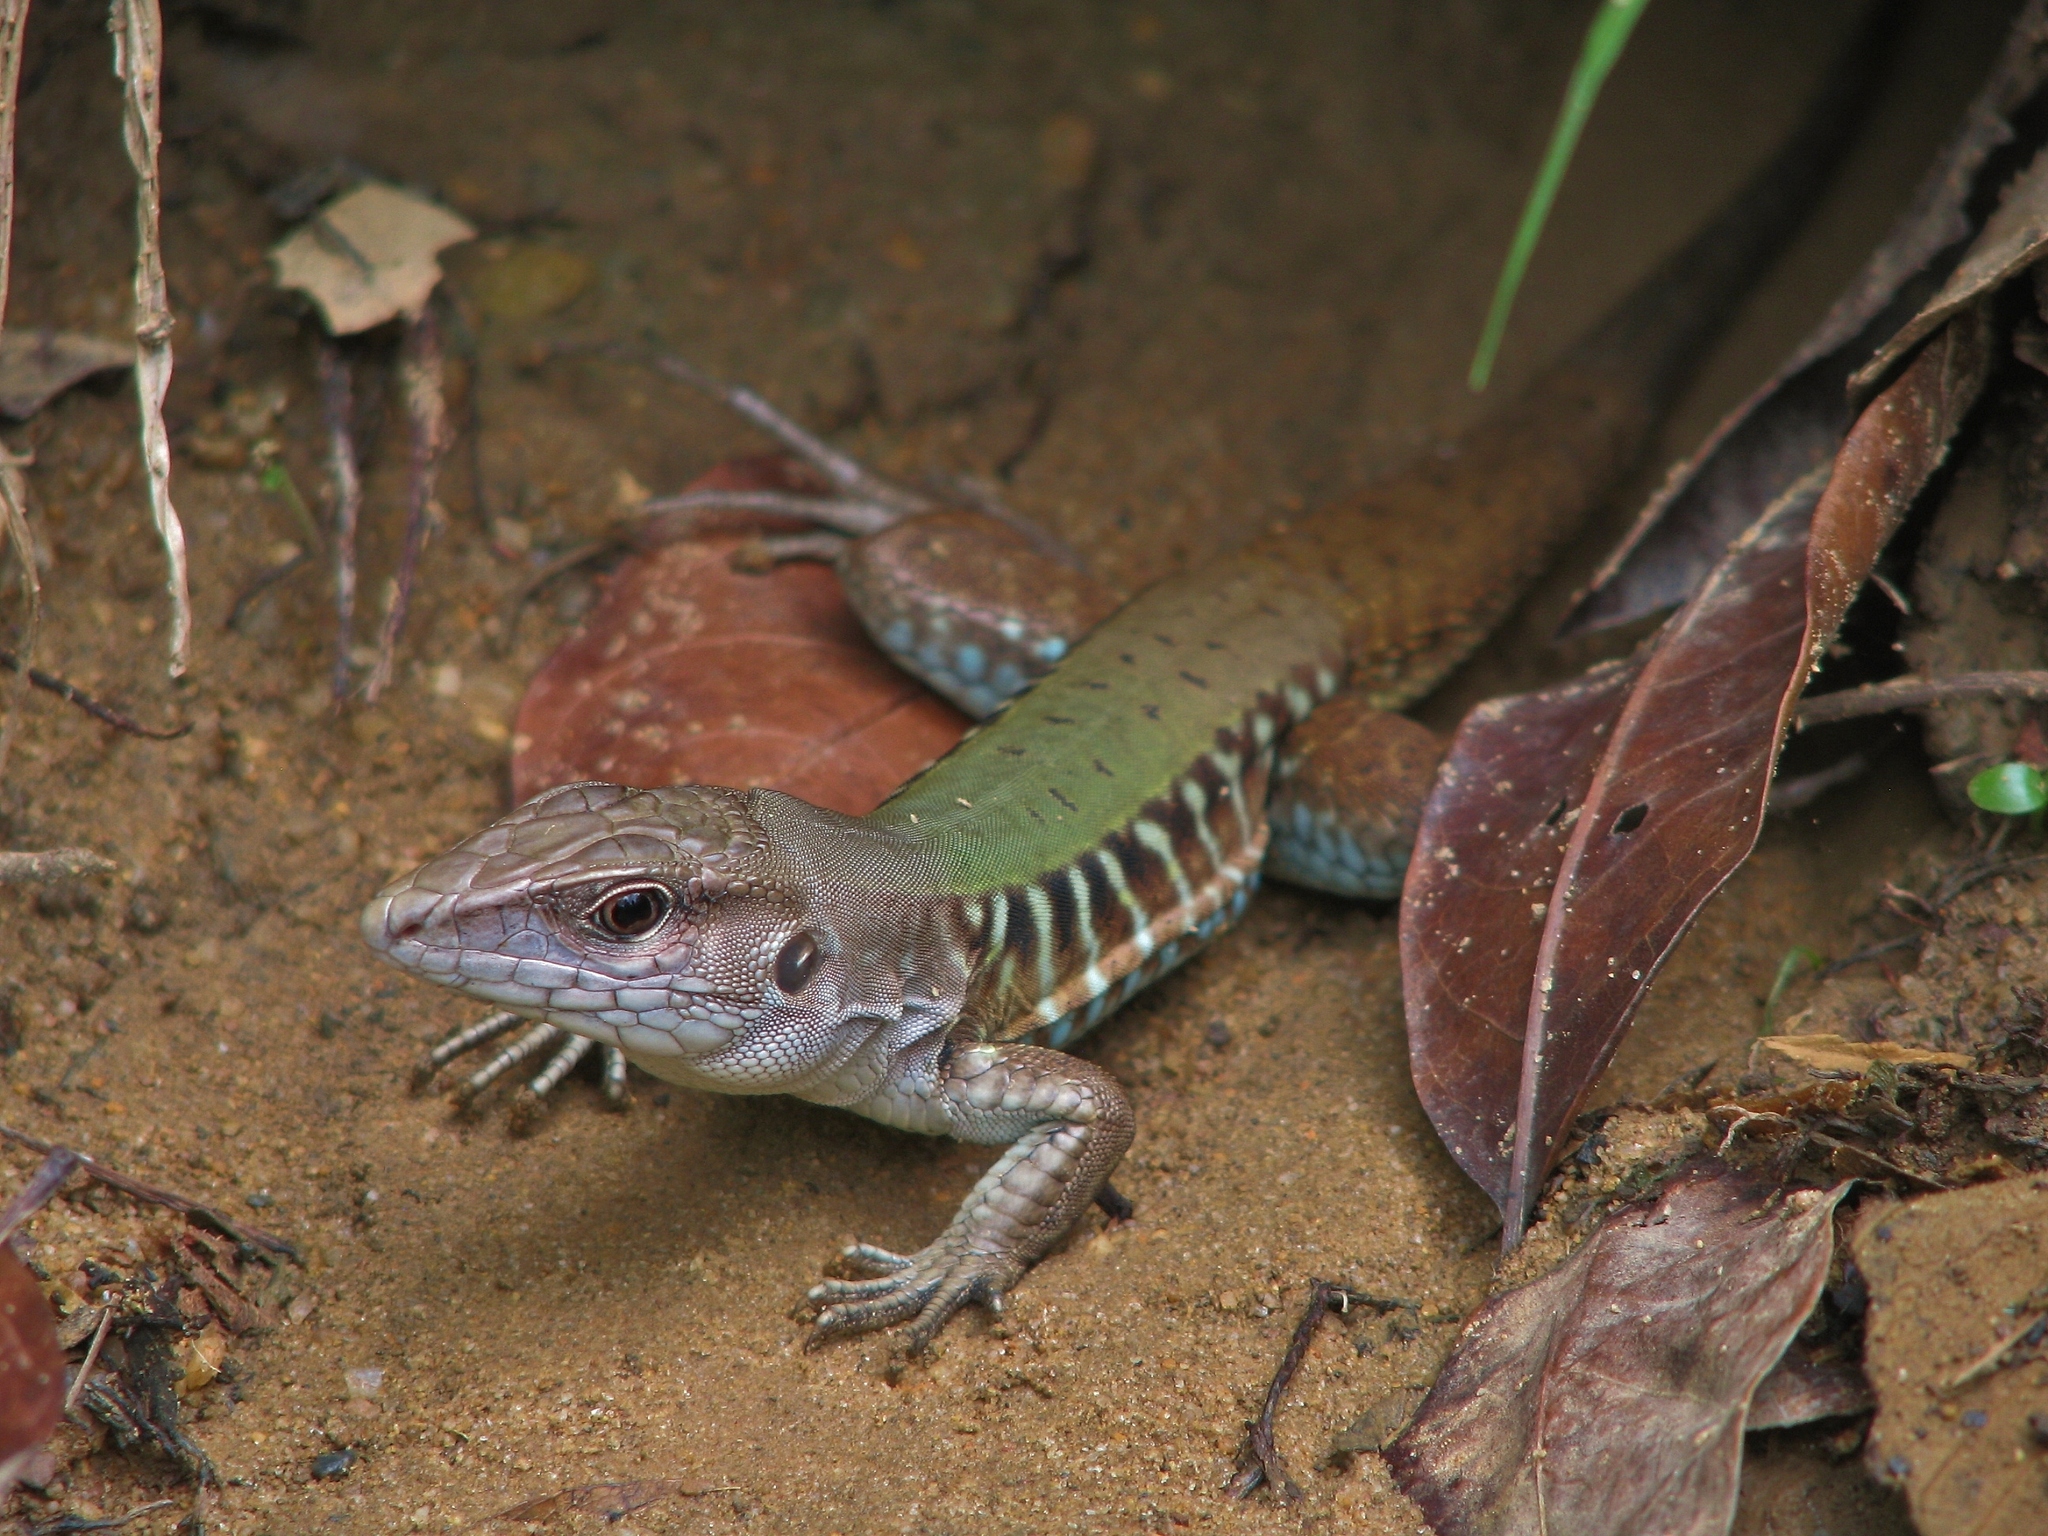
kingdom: Animalia
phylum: Chordata
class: Squamata
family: Teiidae
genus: Holcosus
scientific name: Holcosus hartwegi
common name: Rainbow ameiva
